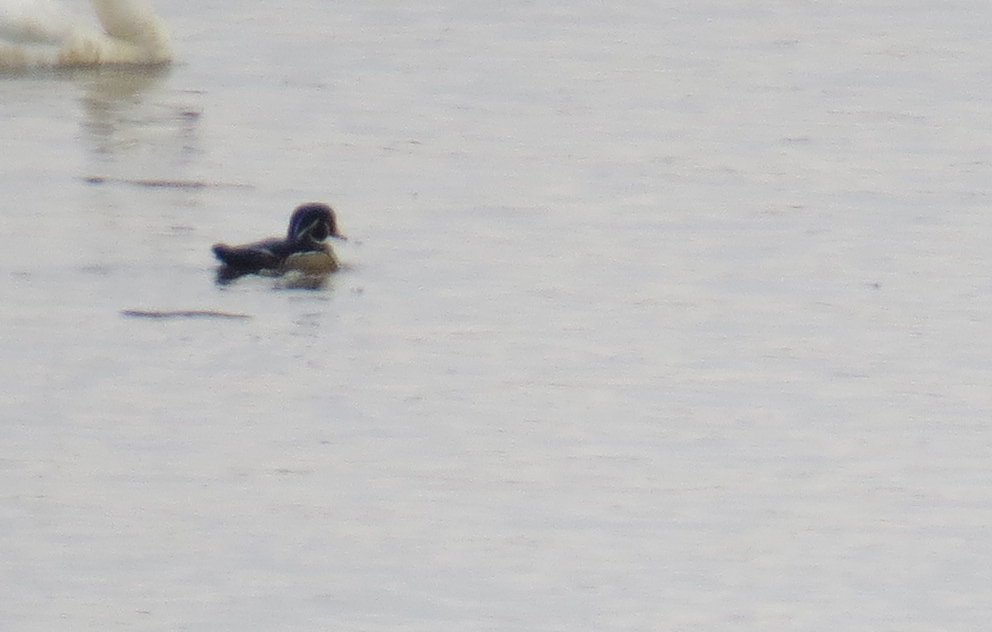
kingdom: Animalia
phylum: Chordata
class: Aves
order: Anseriformes
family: Anatidae
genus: Aix
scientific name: Aix sponsa
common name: Wood duck
